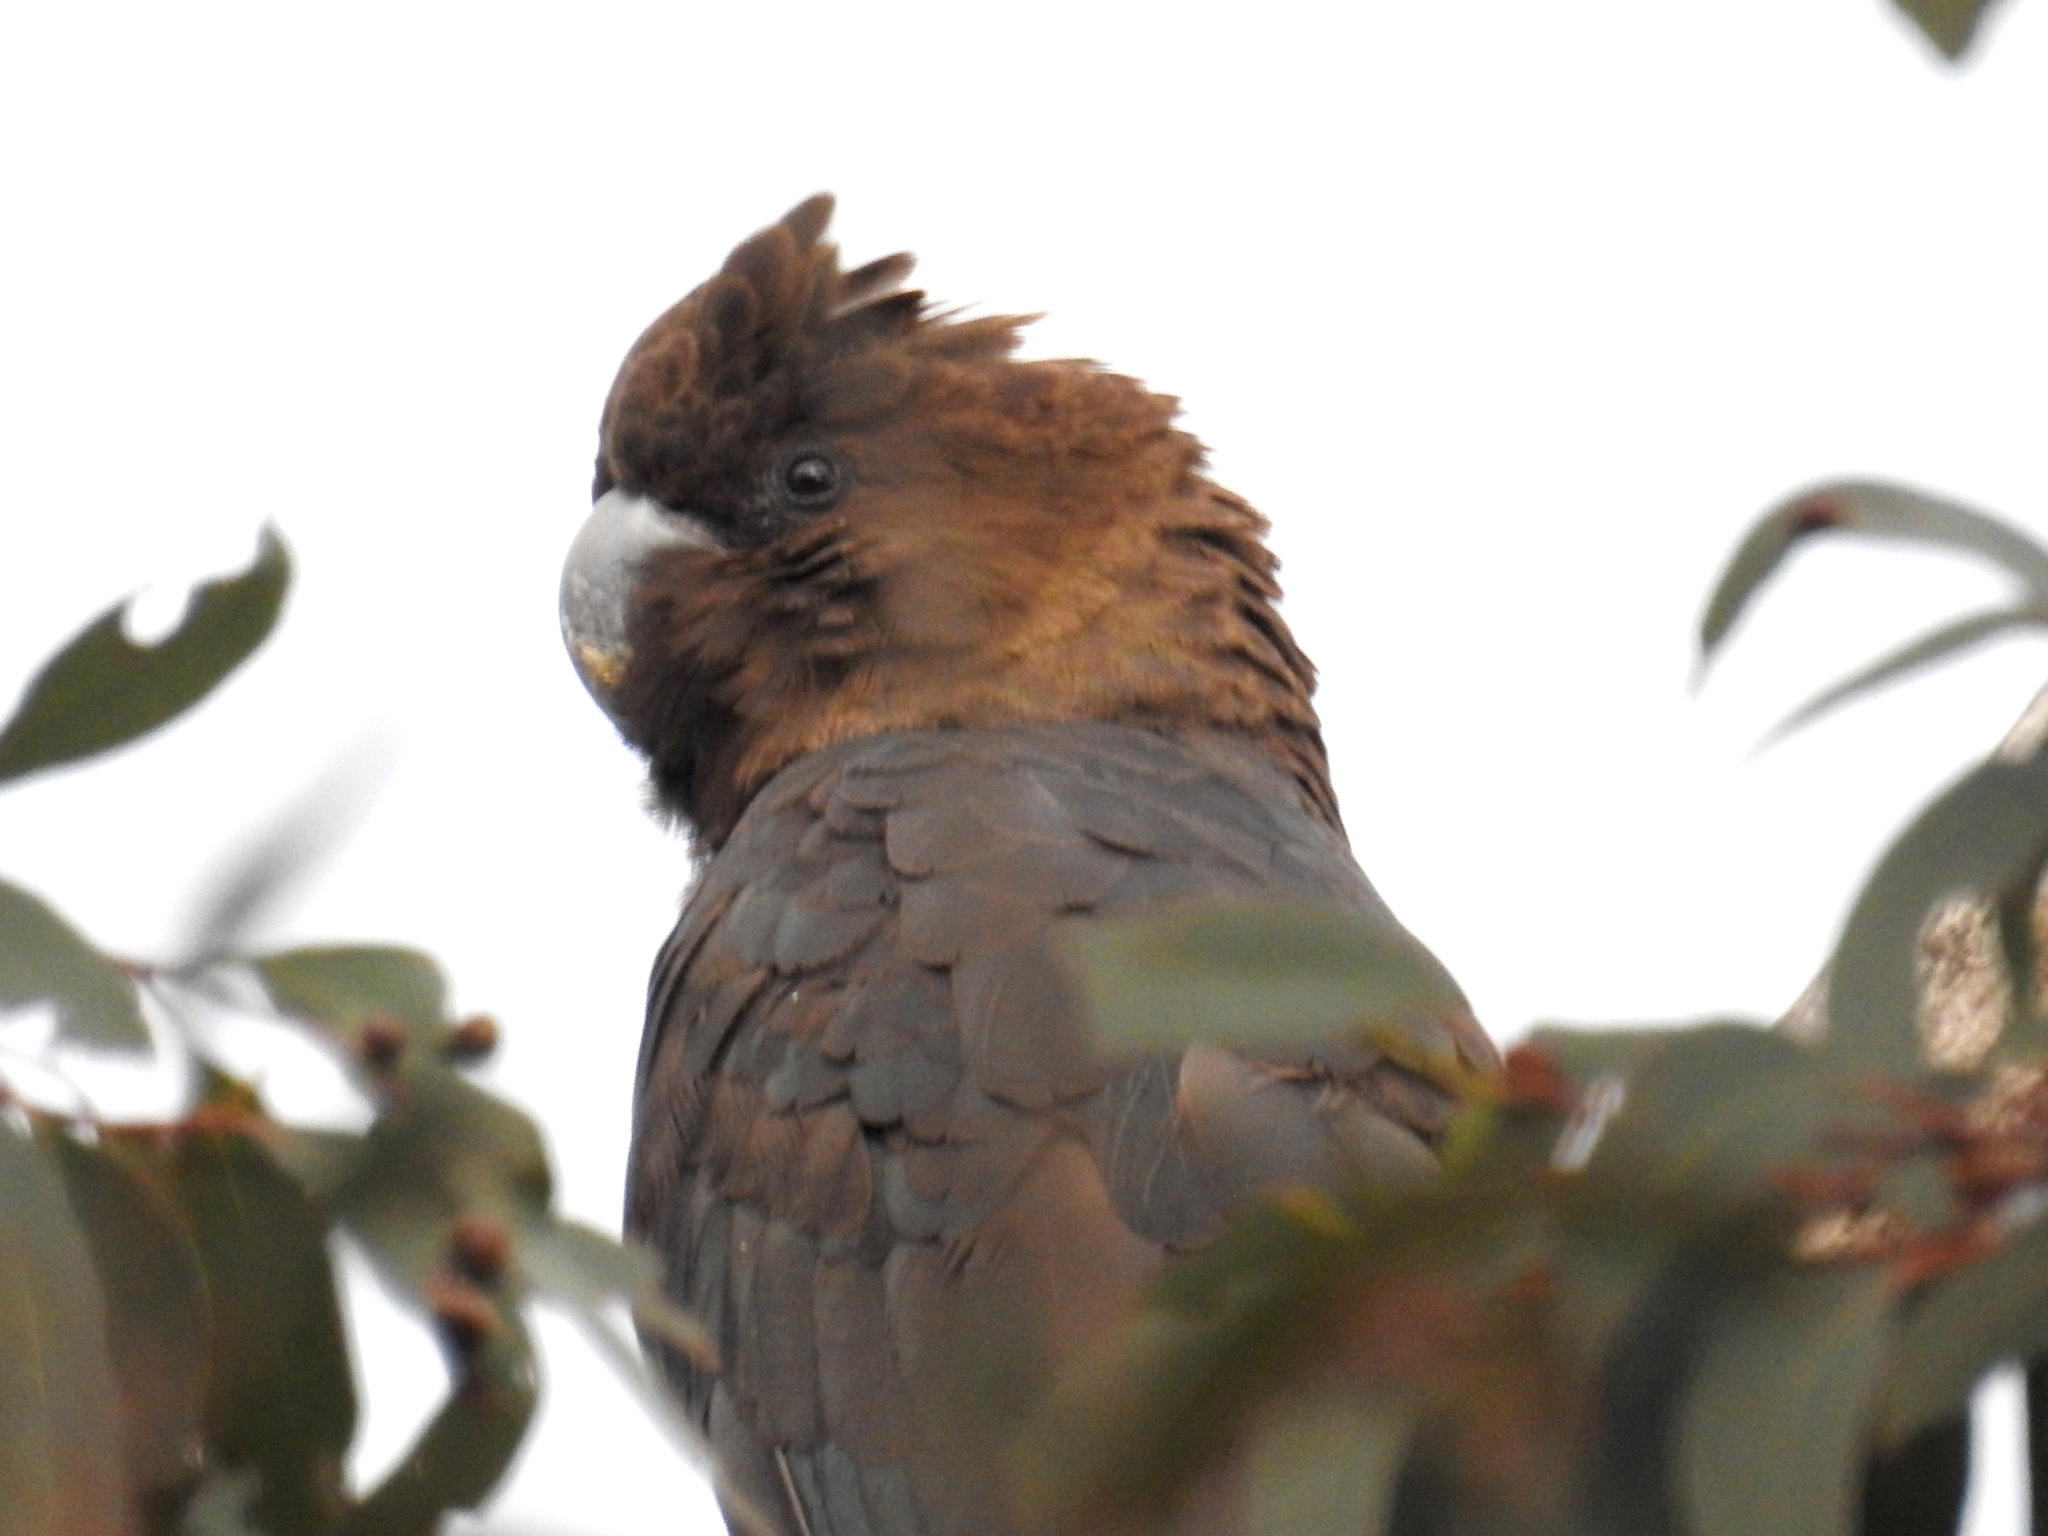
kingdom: Animalia
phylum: Chordata
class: Aves
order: Psittaciformes
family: Psittacidae
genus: Calyptorhynchus
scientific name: Calyptorhynchus lathami
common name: Glossy black cockatoo
